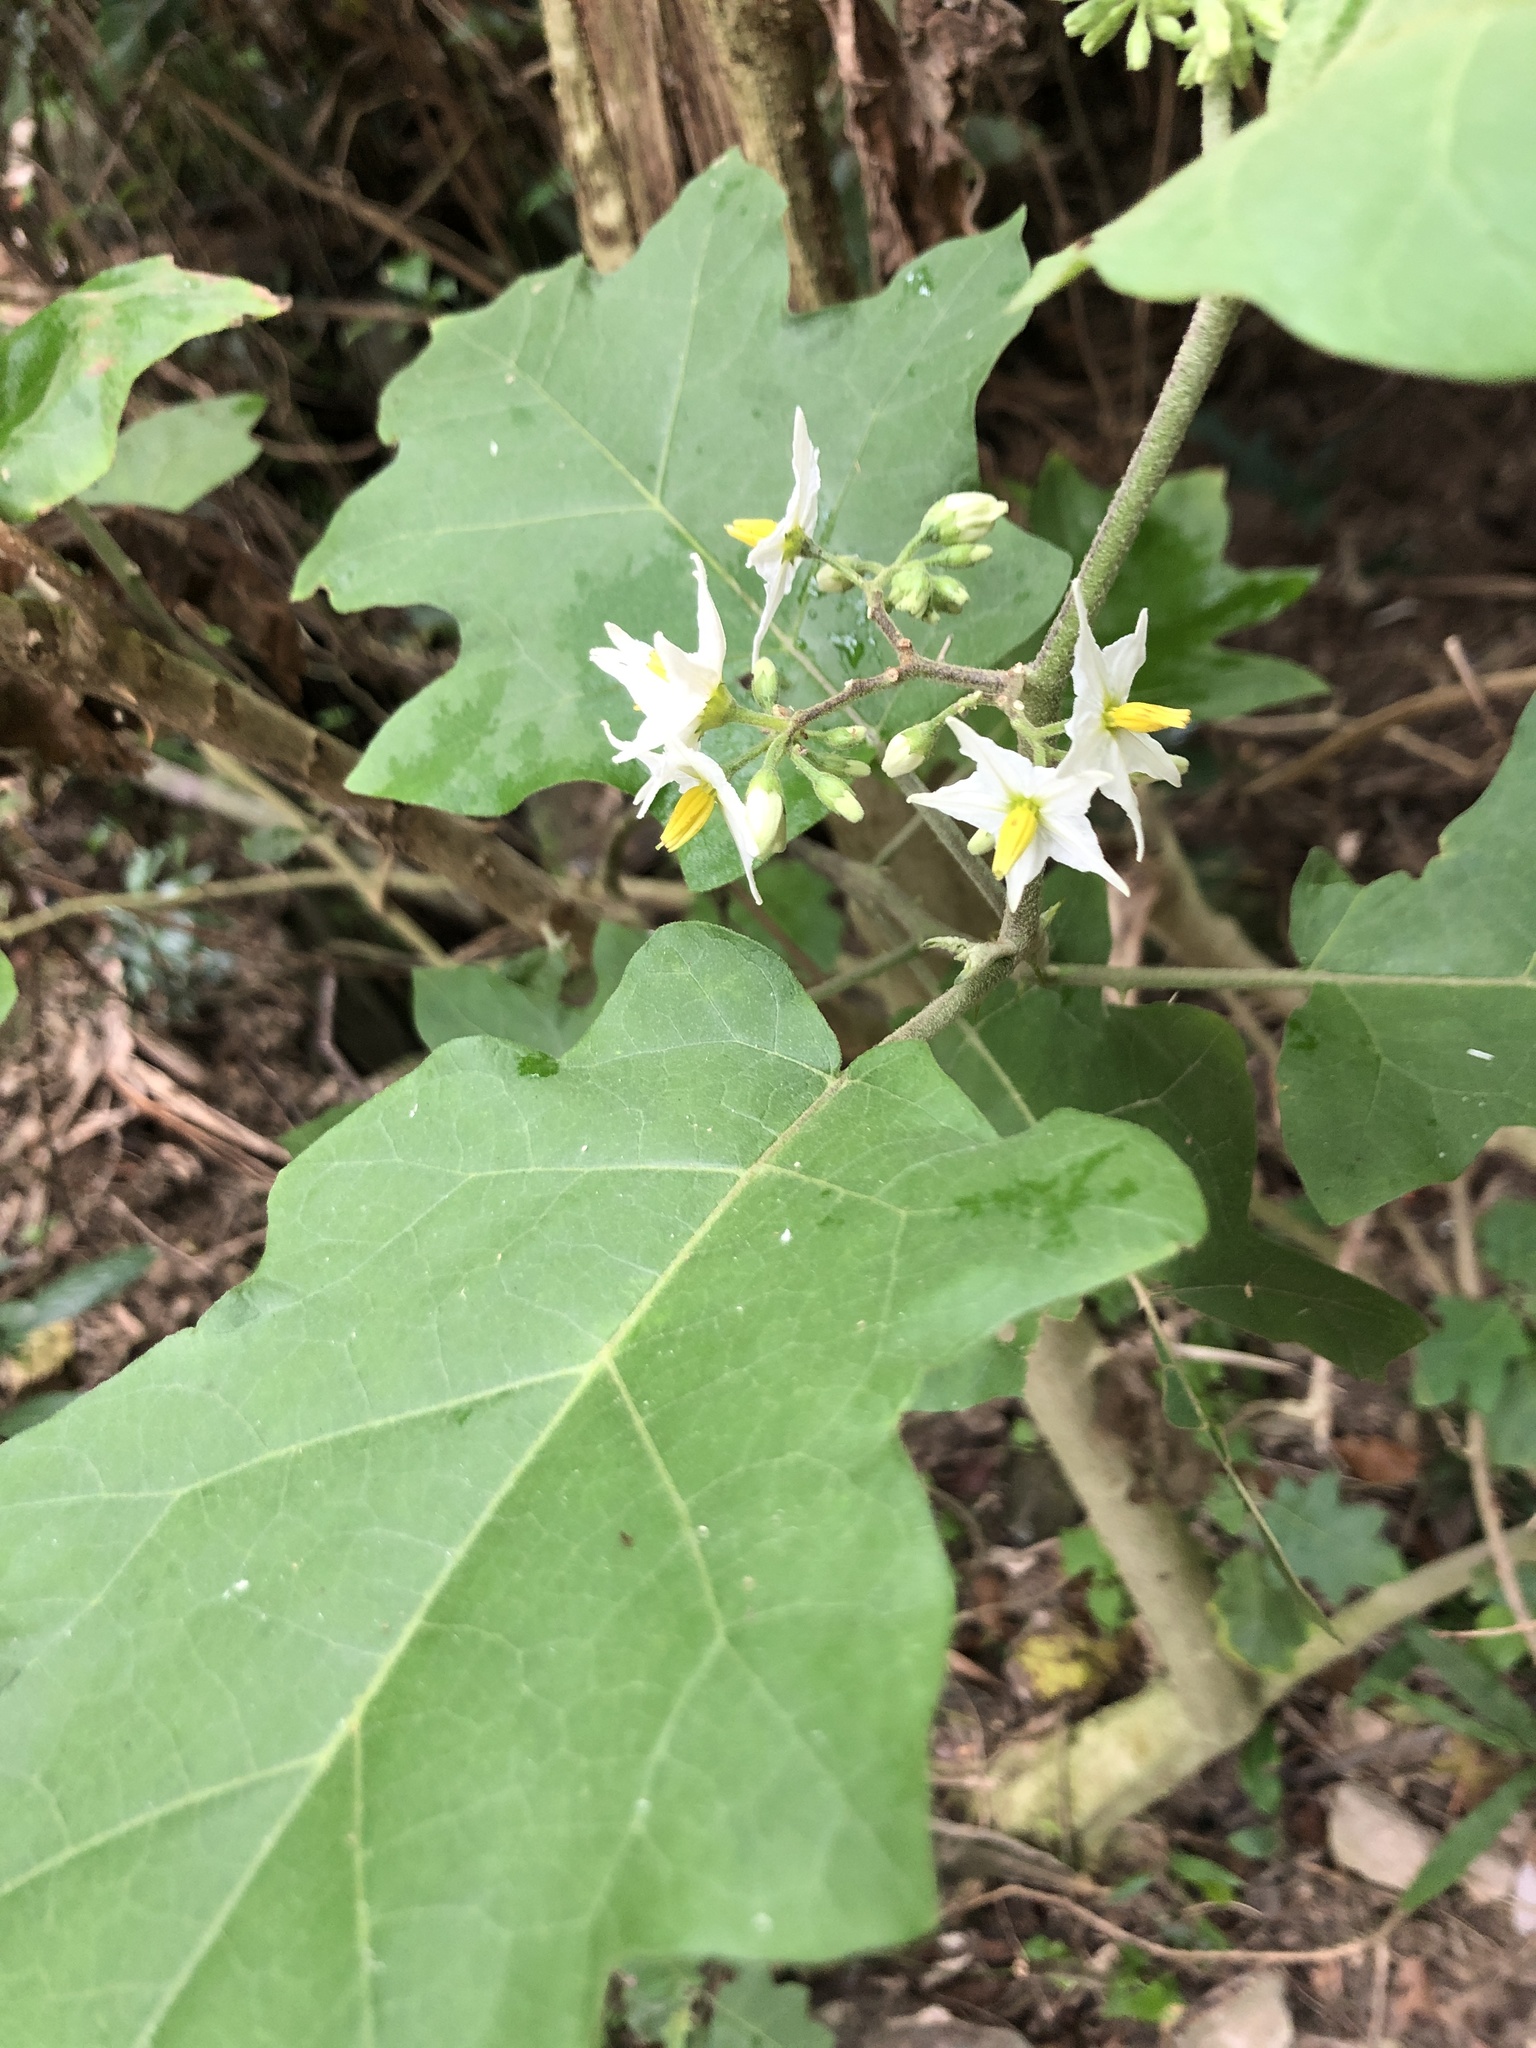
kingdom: Plantae
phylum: Tracheophyta
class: Magnoliopsida
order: Solanales
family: Solanaceae
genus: Solanum
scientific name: Solanum torvum
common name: Turkey berry
